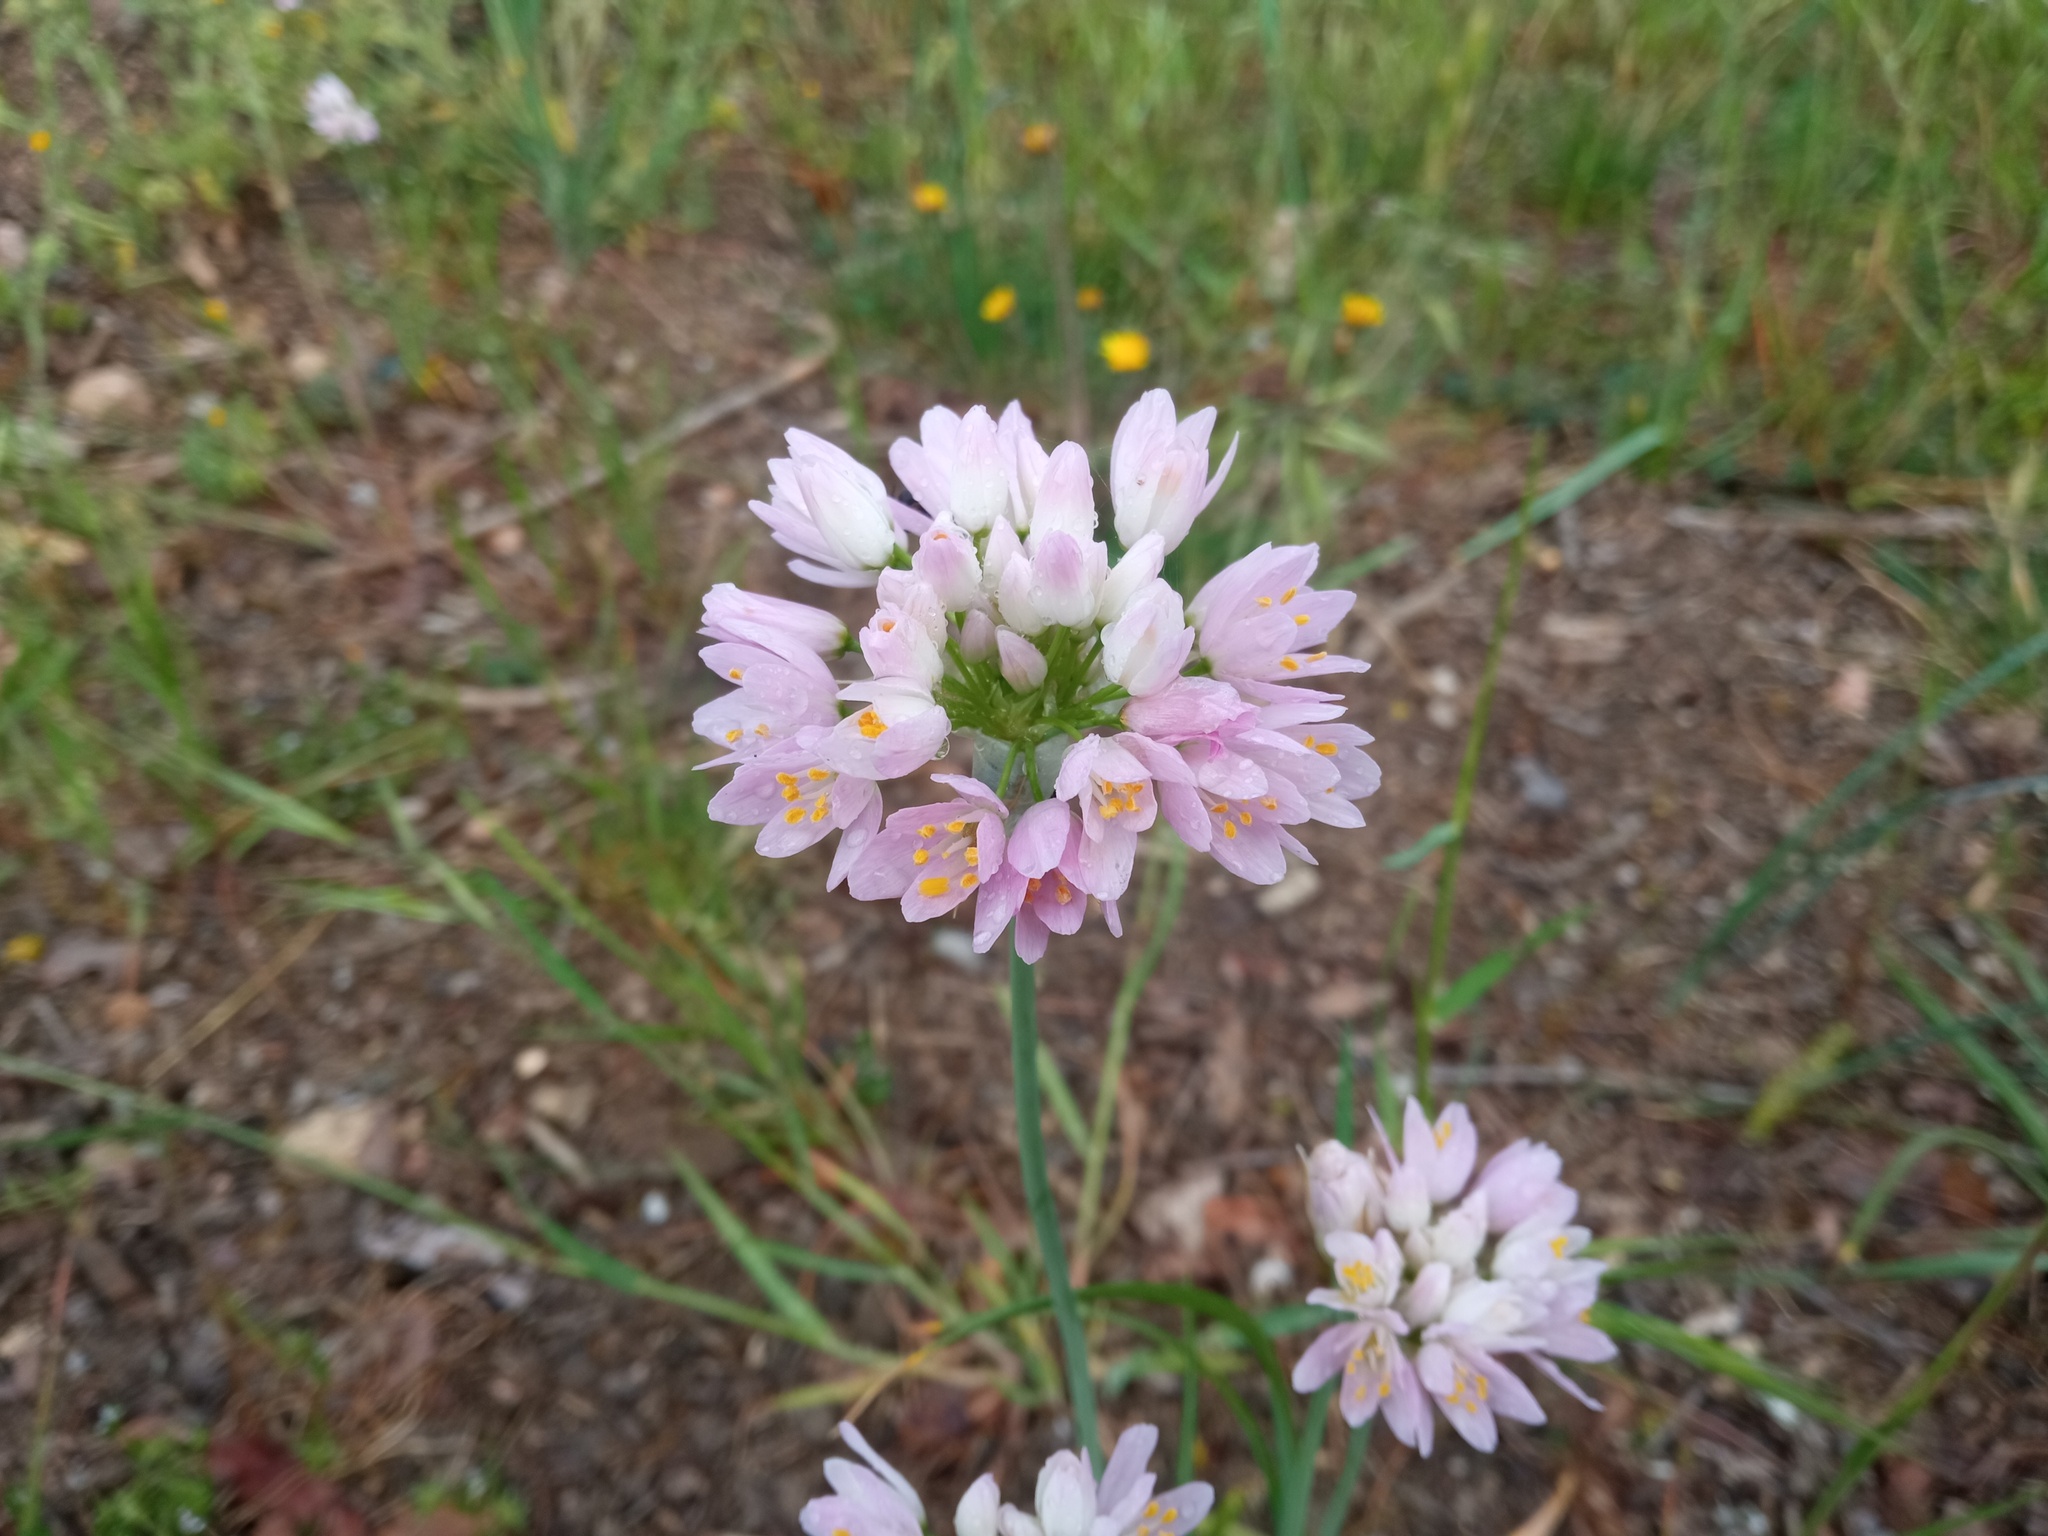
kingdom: Plantae
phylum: Tracheophyta
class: Liliopsida
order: Asparagales
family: Amaryllidaceae
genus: Allium
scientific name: Allium roseum
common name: Rosy garlic
